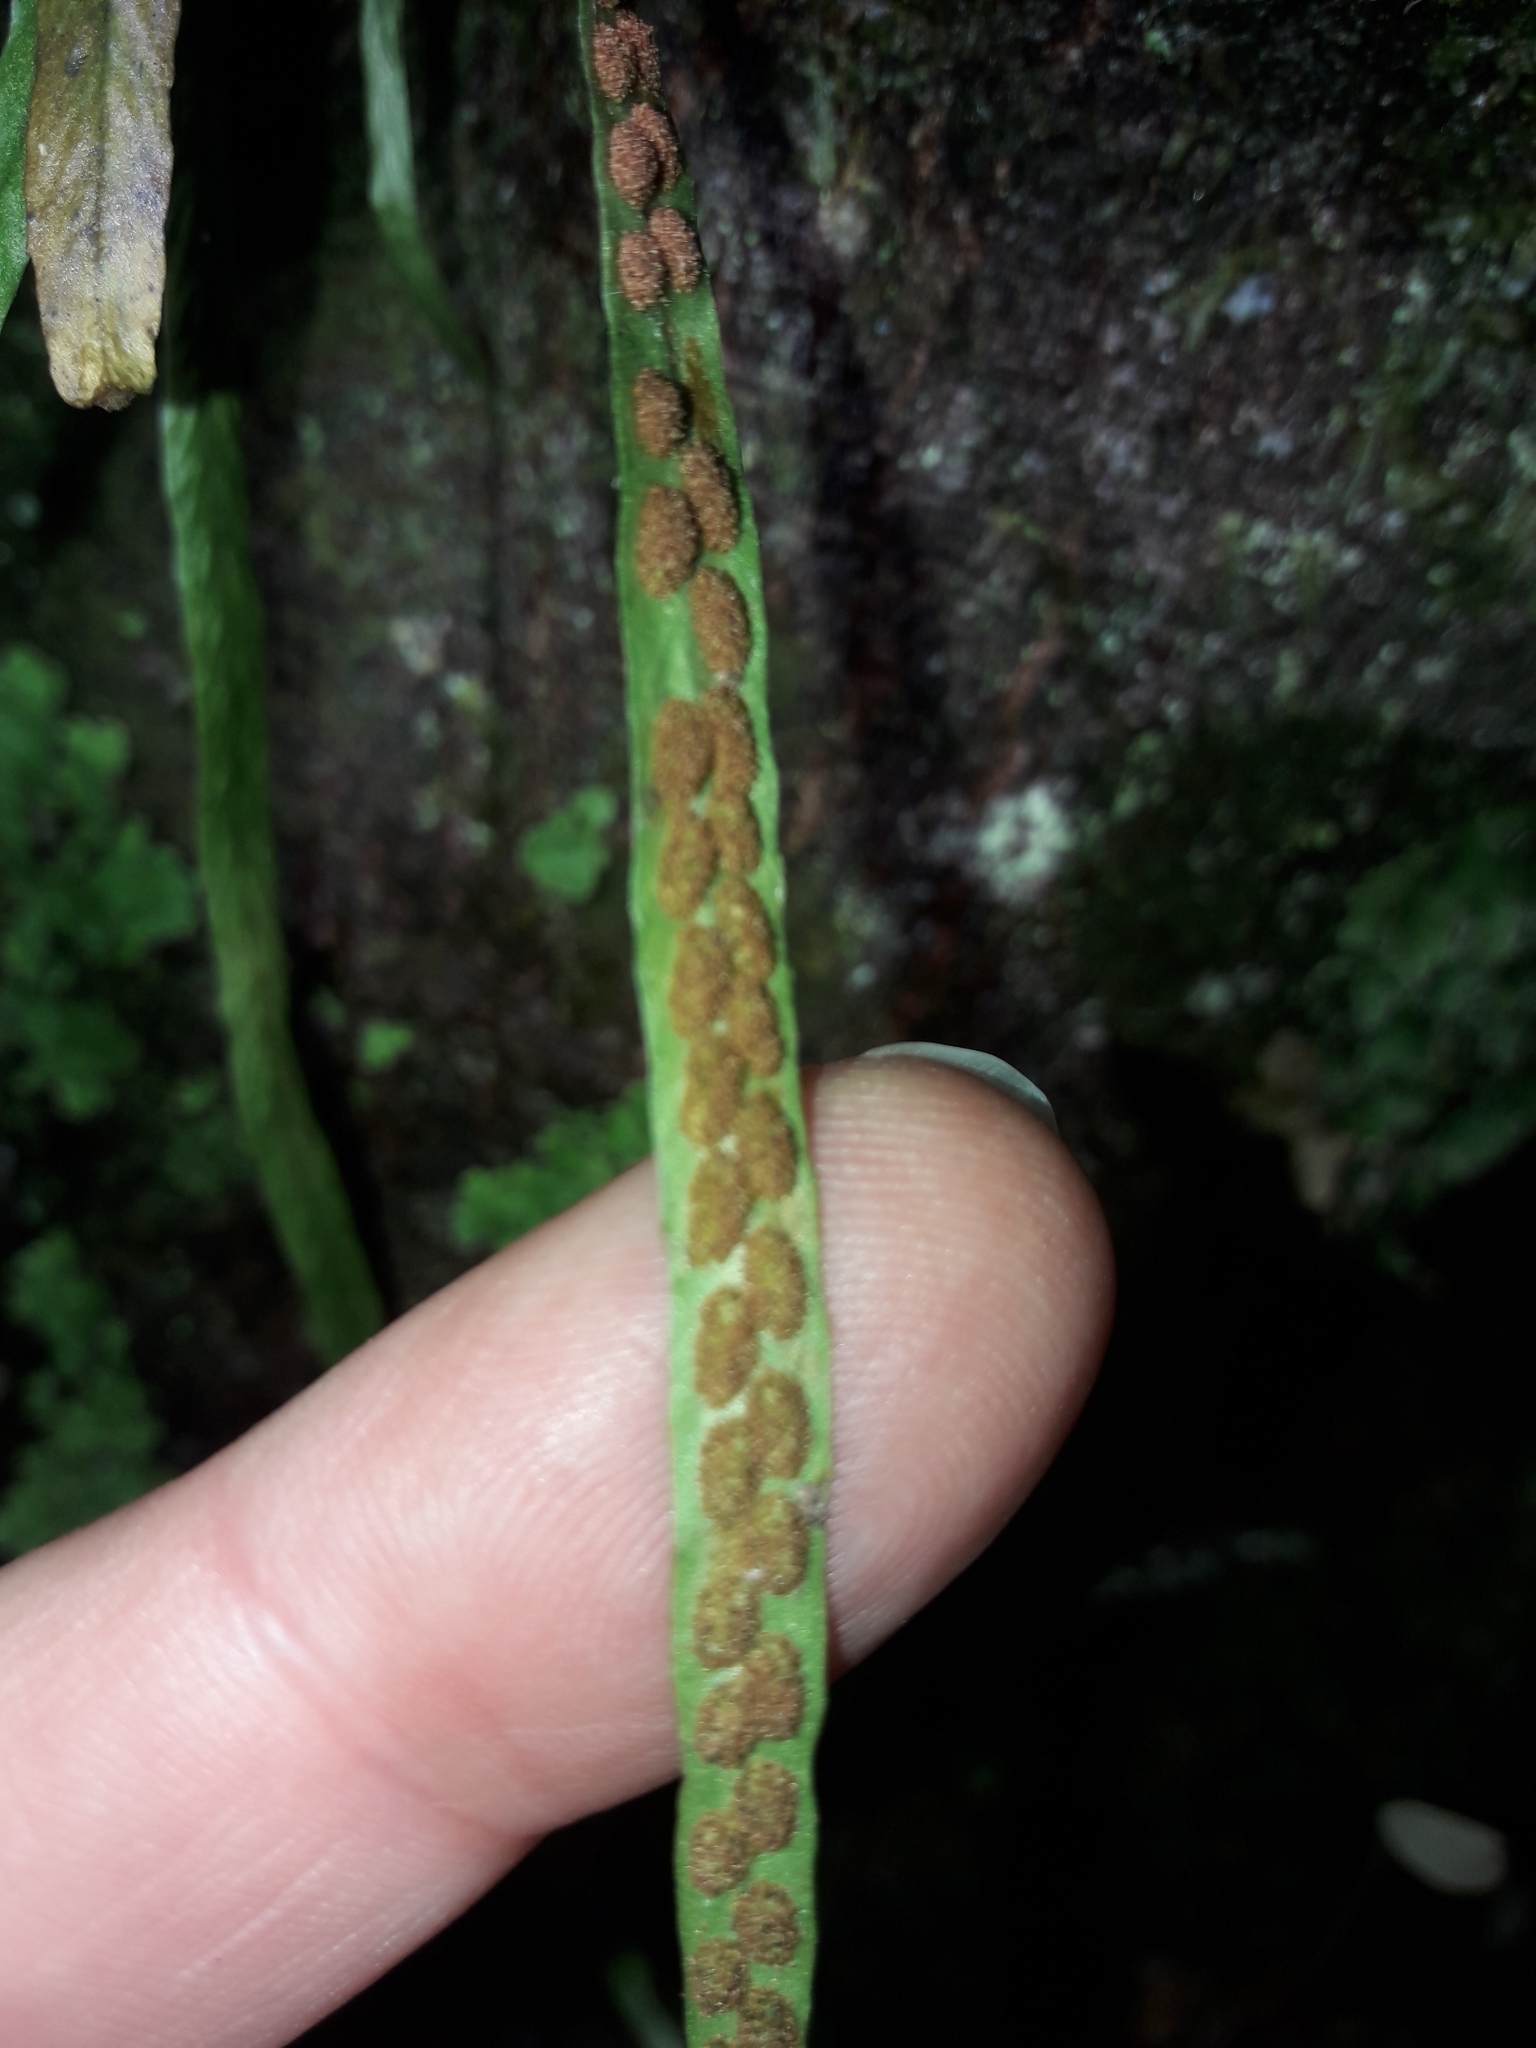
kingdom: Plantae
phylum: Tracheophyta
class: Polypodiopsida
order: Polypodiales
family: Polypodiaceae
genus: Notogrammitis
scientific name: Notogrammitis angustifolia
